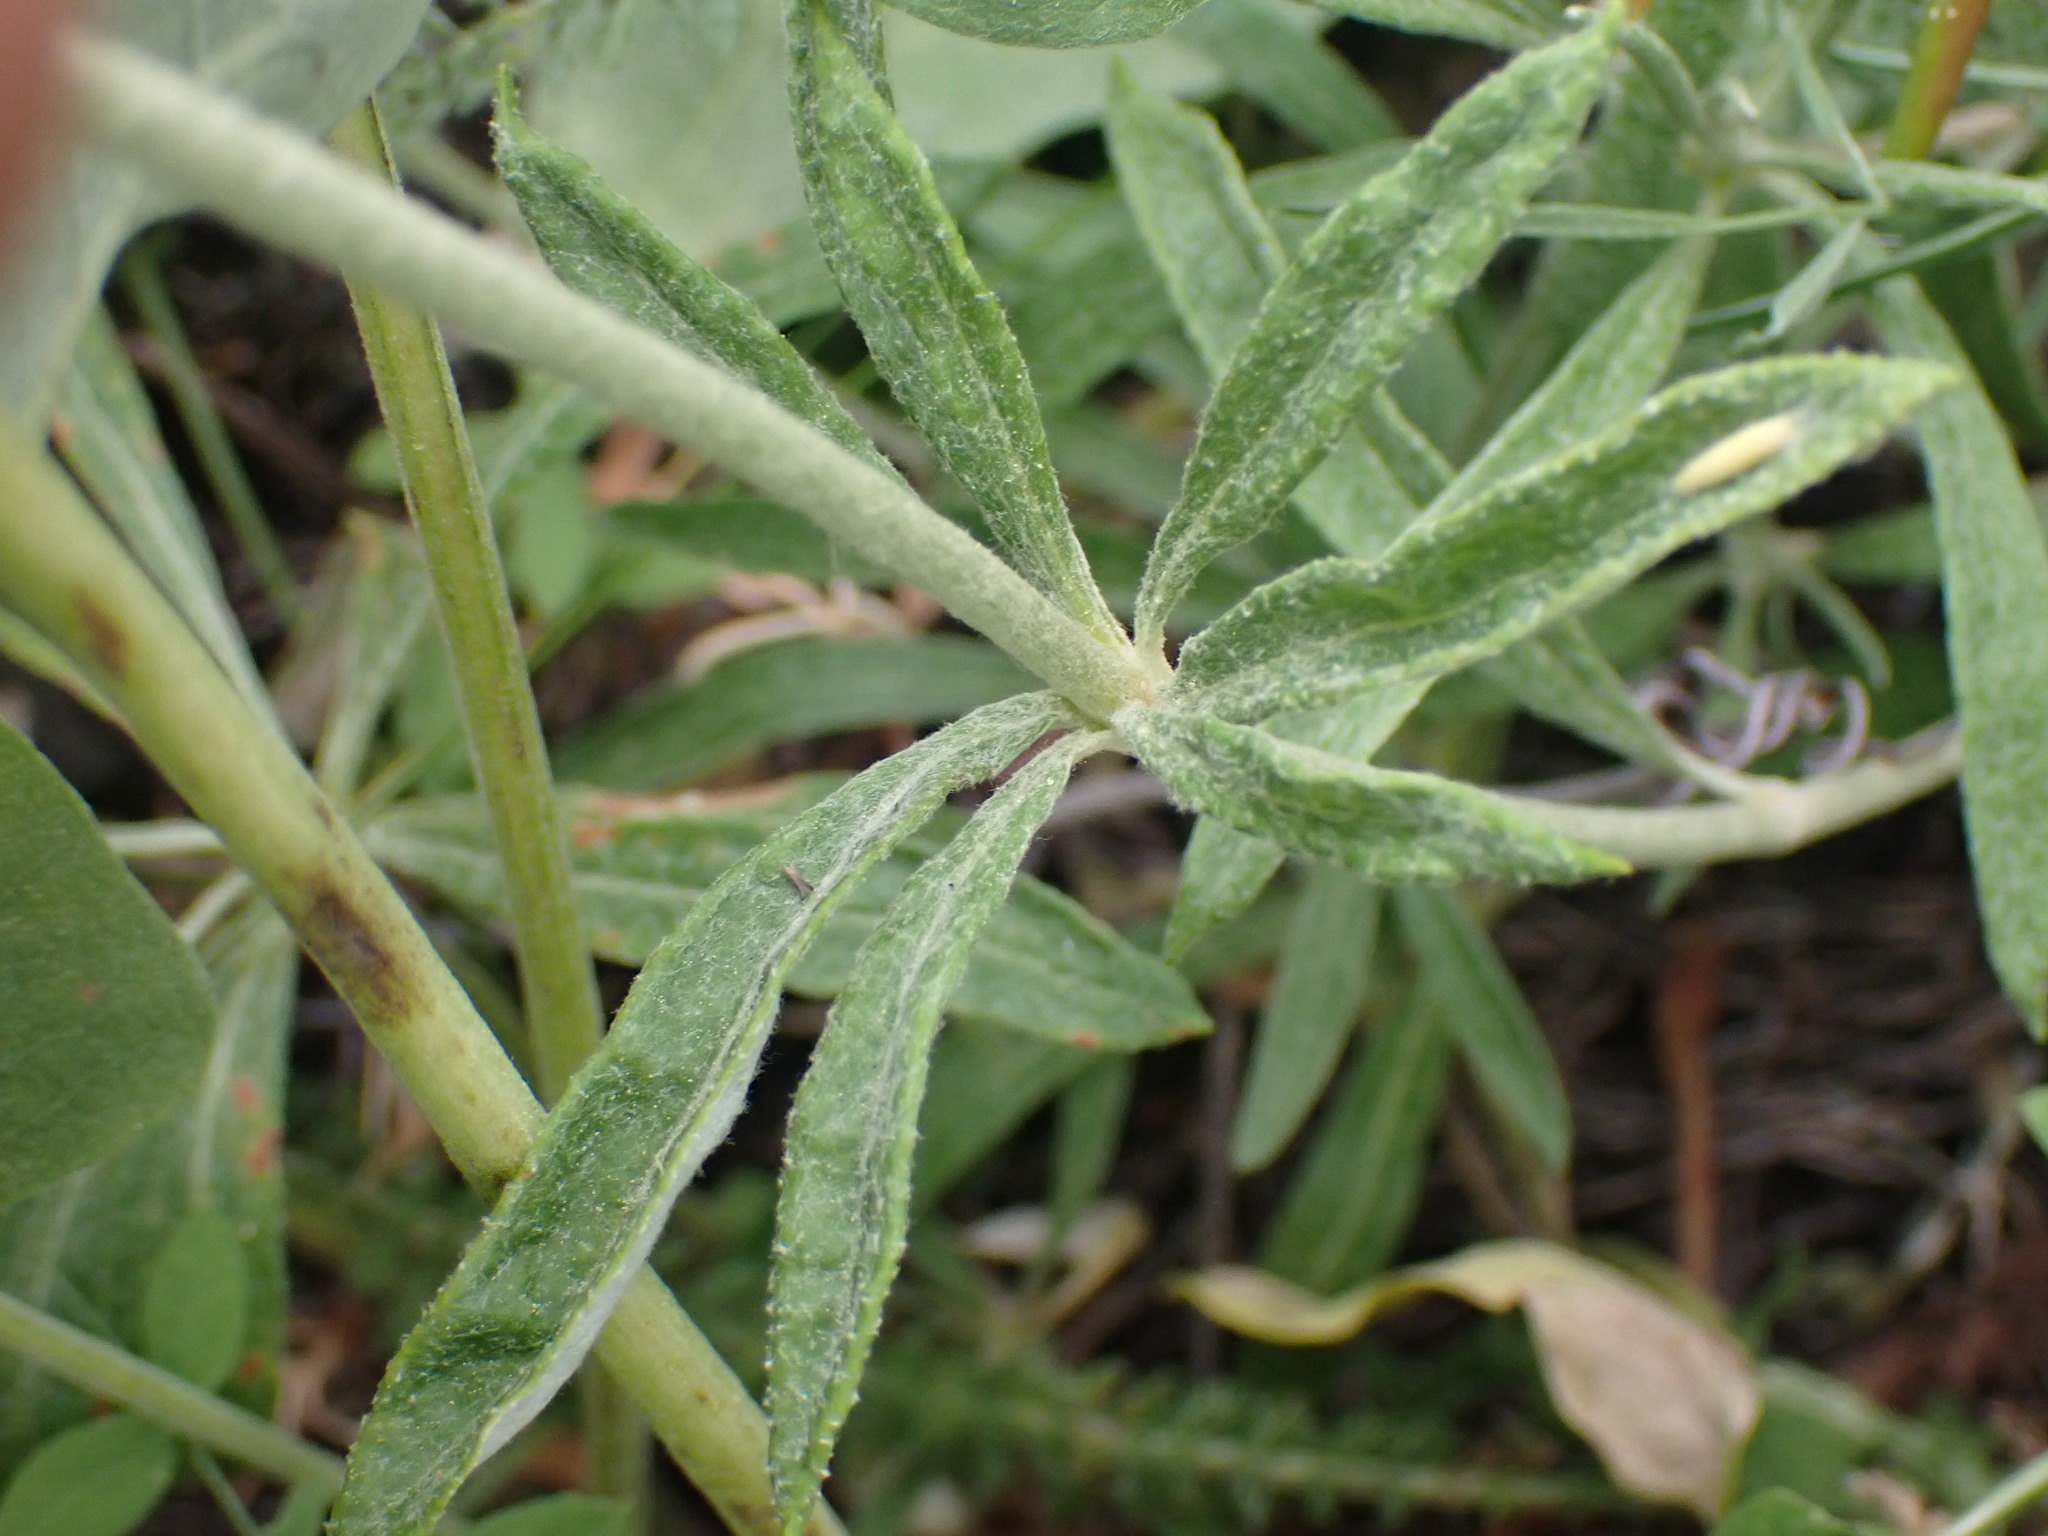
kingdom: Plantae
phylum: Tracheophyta
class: Magnoliopsida
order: Caryophyllales
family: Polygonaceae
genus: Eriogonum
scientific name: Eriogonum heracleoides
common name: Wyeth's buckwheat
